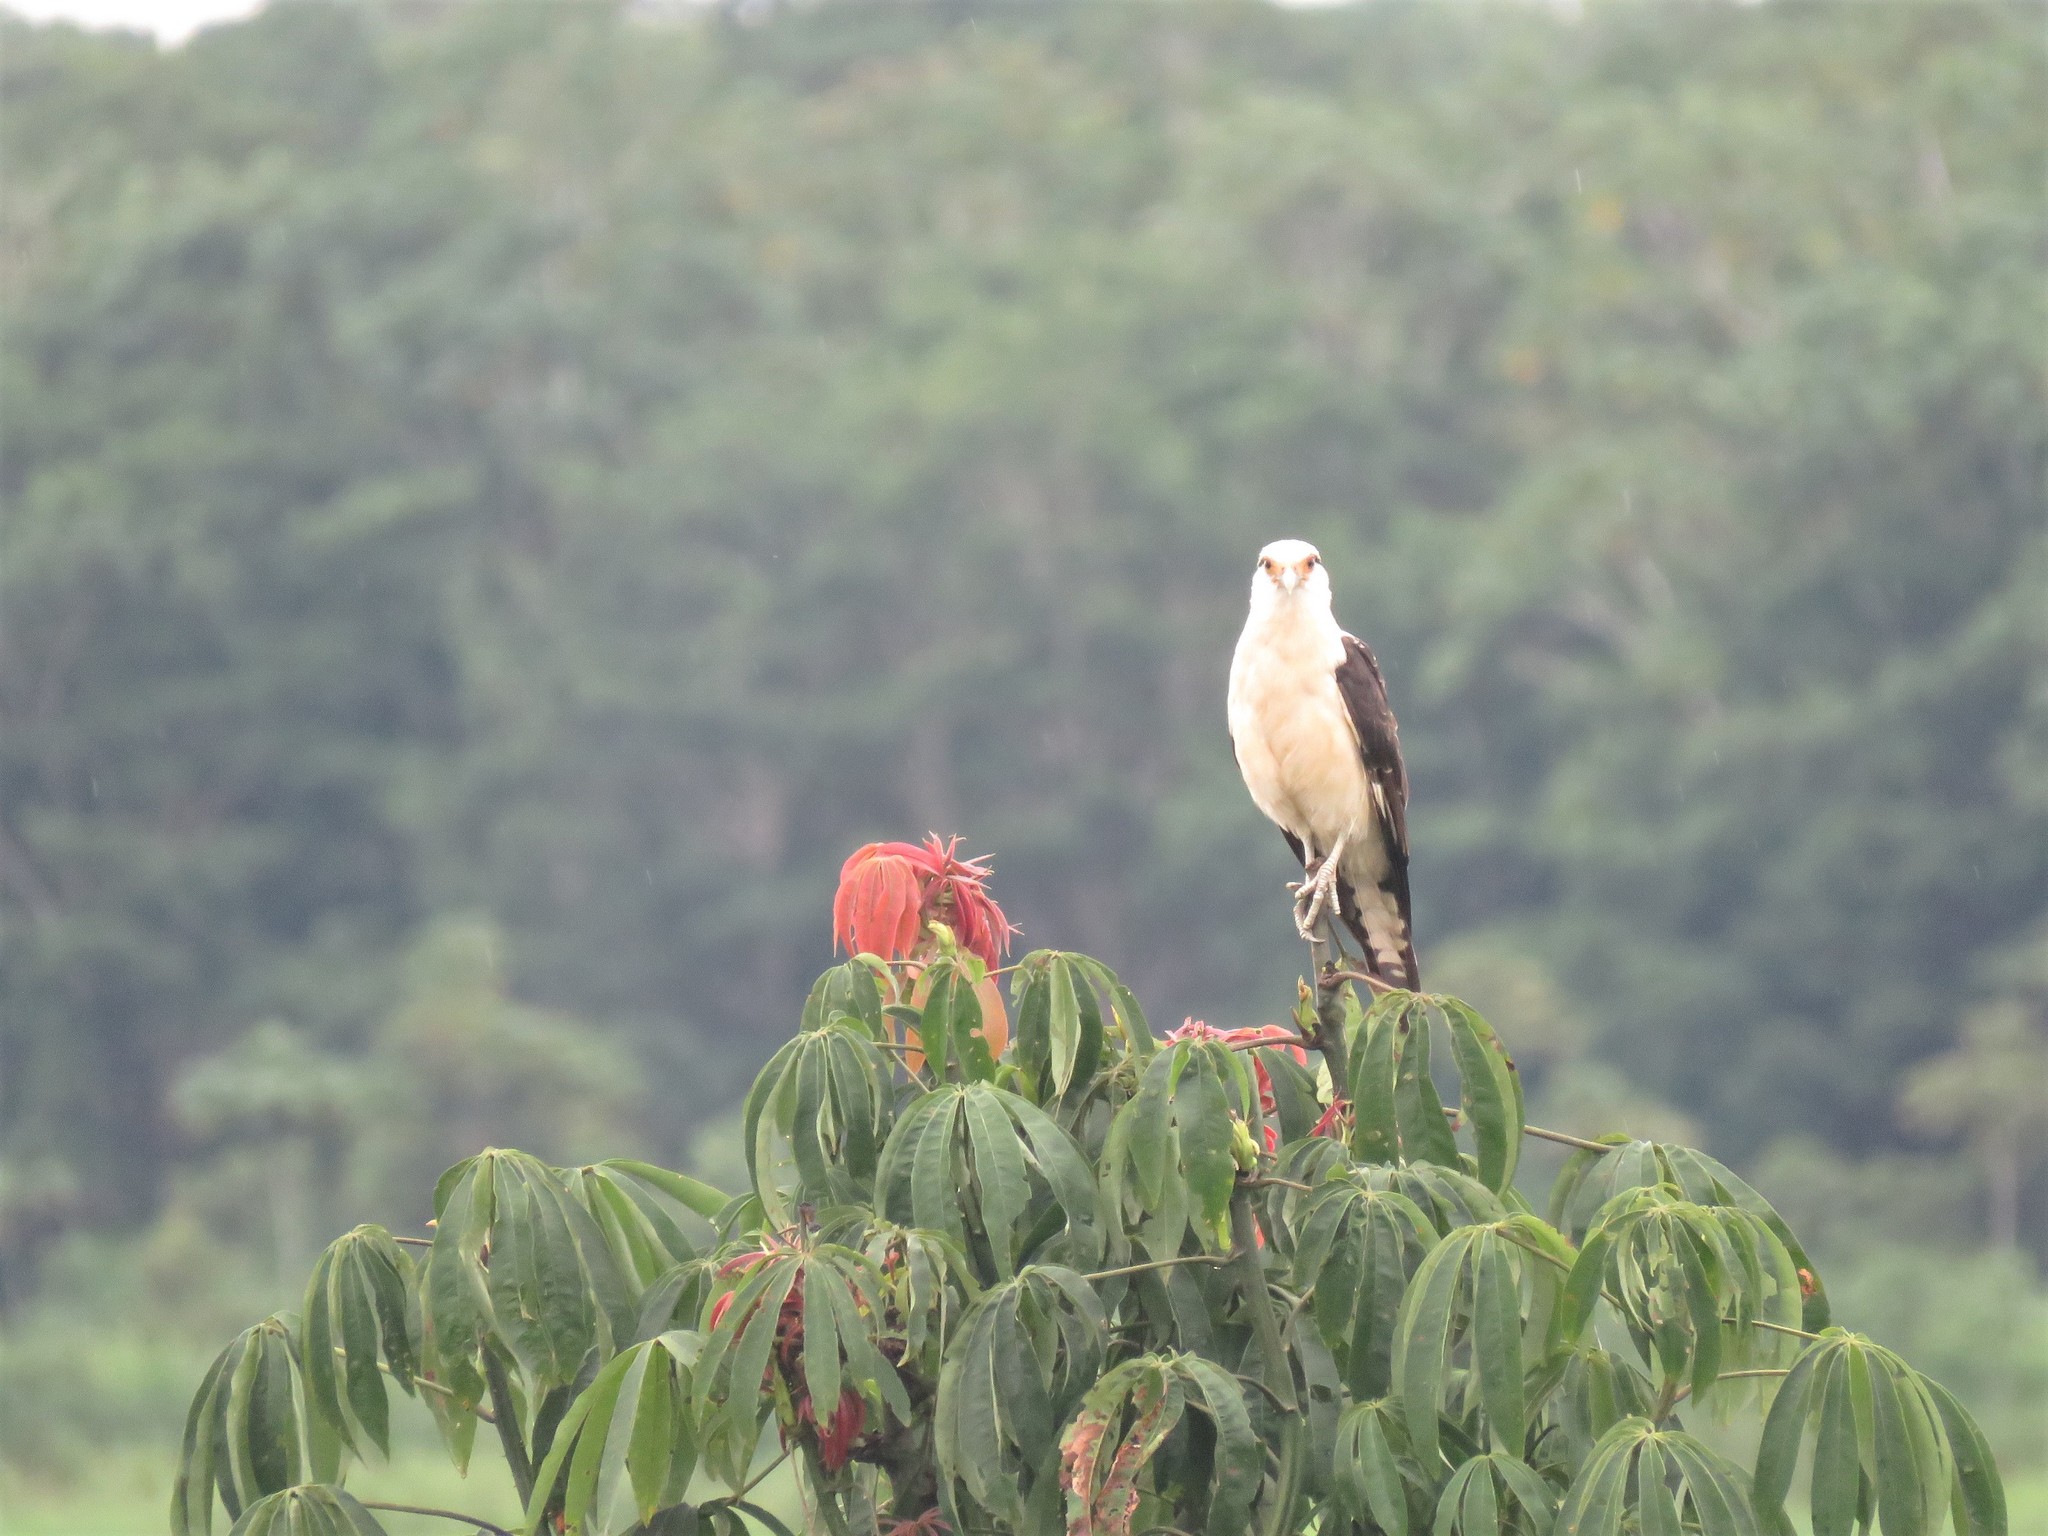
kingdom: Animalia
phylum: Chordata
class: Aves
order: Falconiformes
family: Falconidae
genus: Daptrius
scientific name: Daptrius
